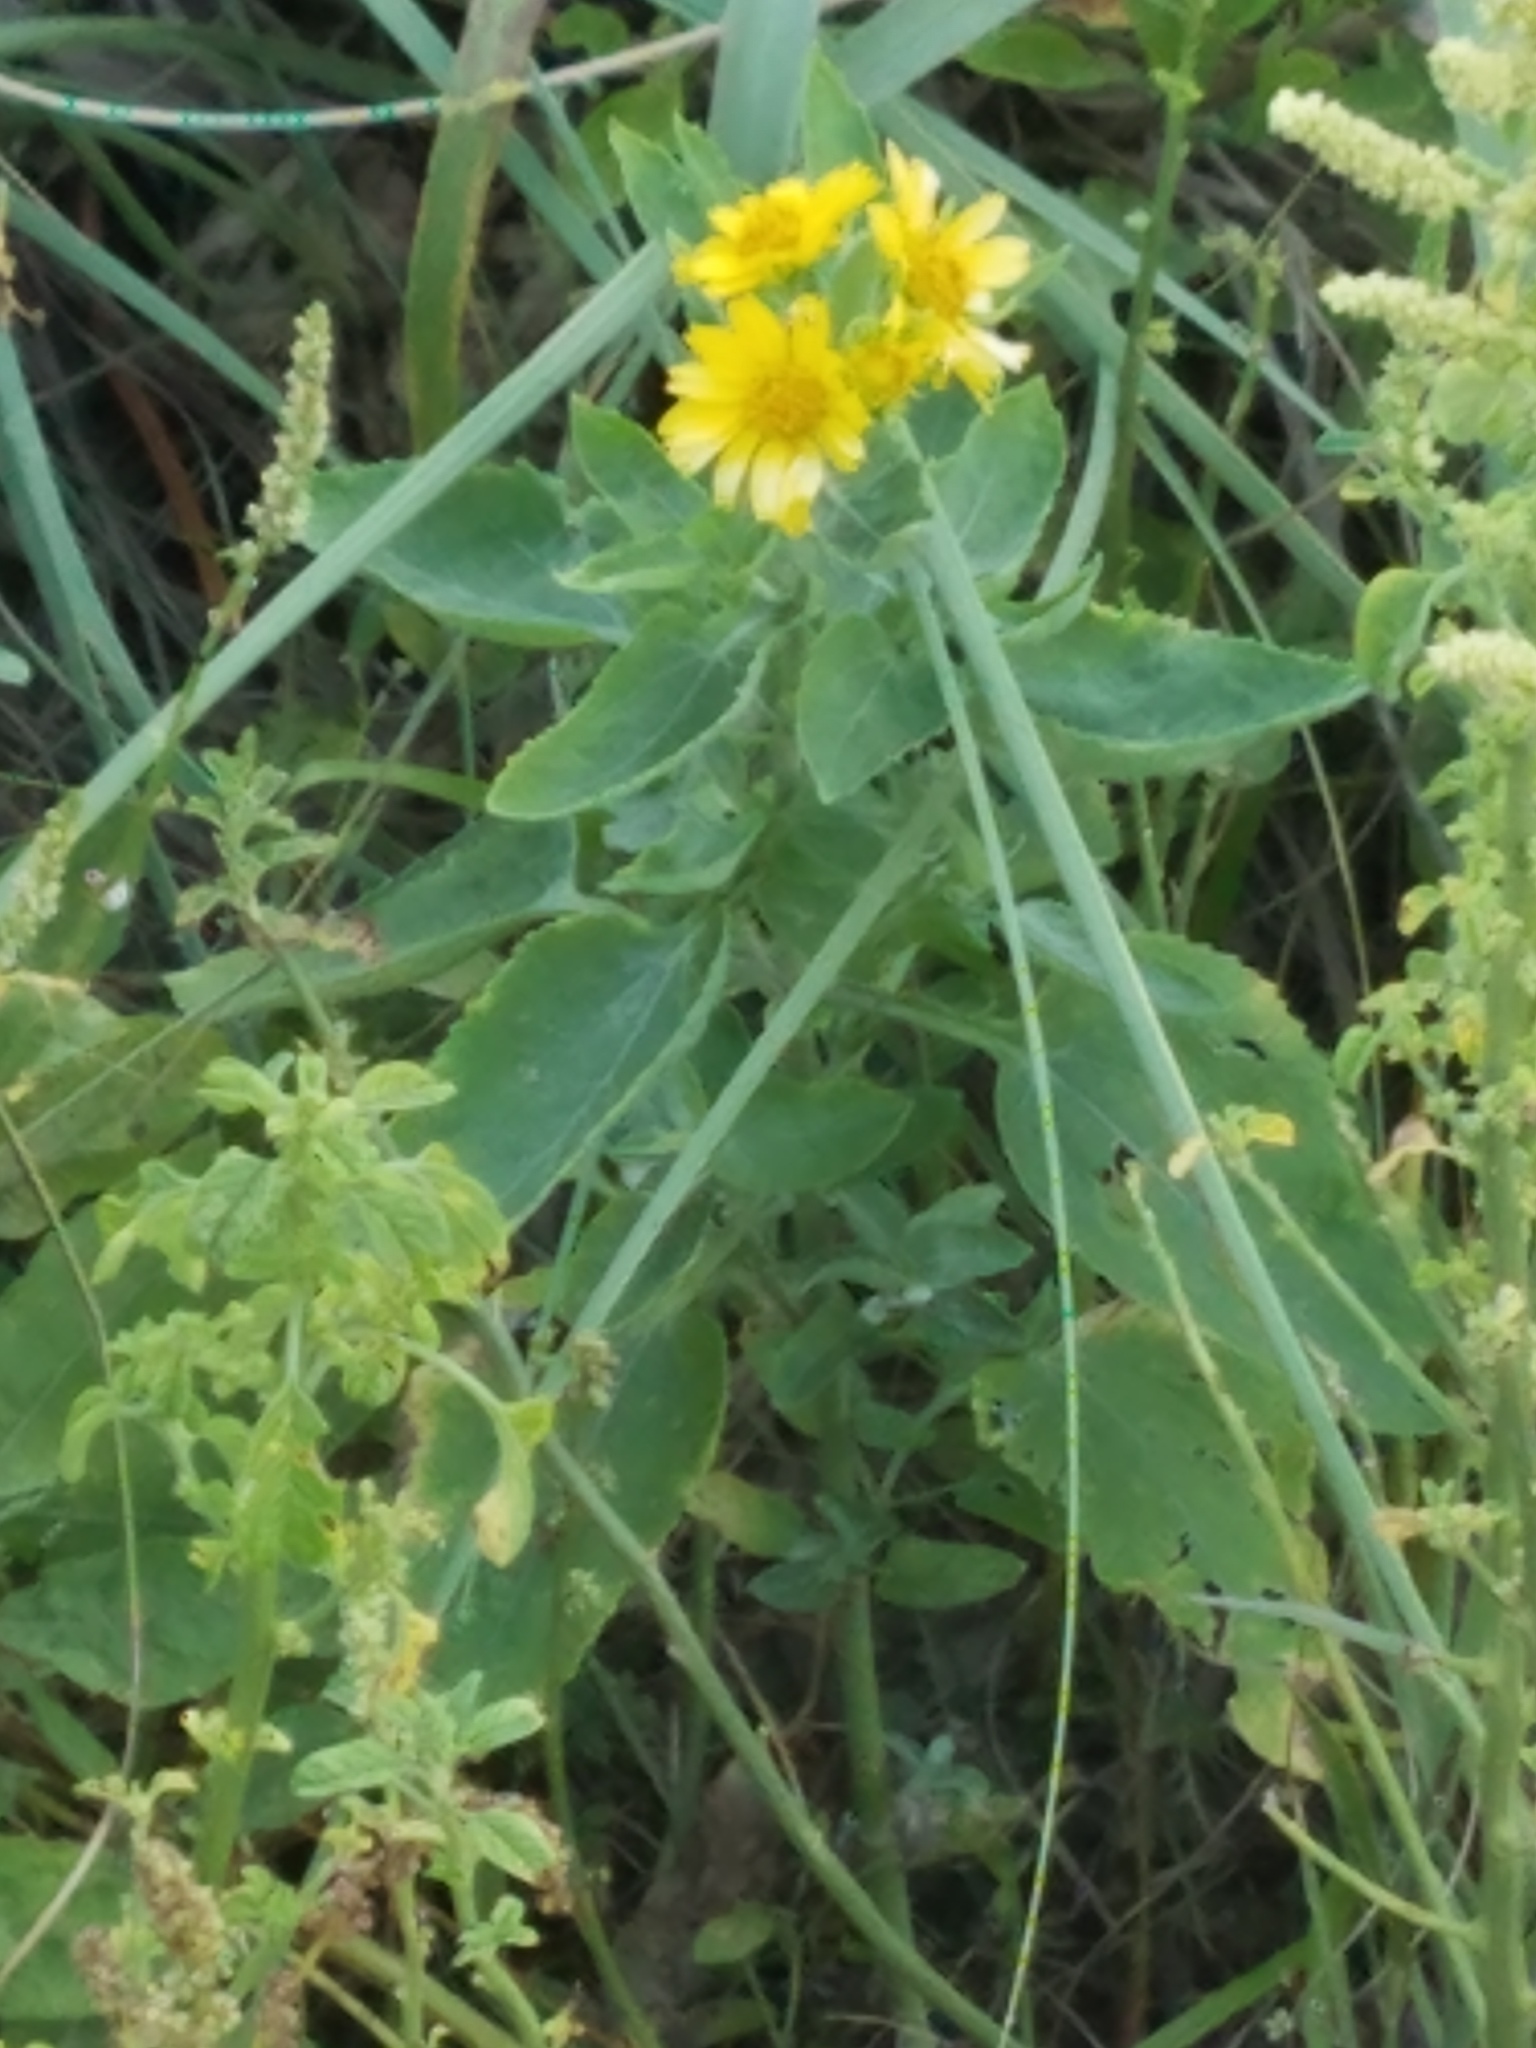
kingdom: Plantae
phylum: Tracheophyta
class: Magnoliopsida
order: Asterales
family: Asteraceae
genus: Verbesina
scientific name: Verbesina encelioides
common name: Golden crownbeard
